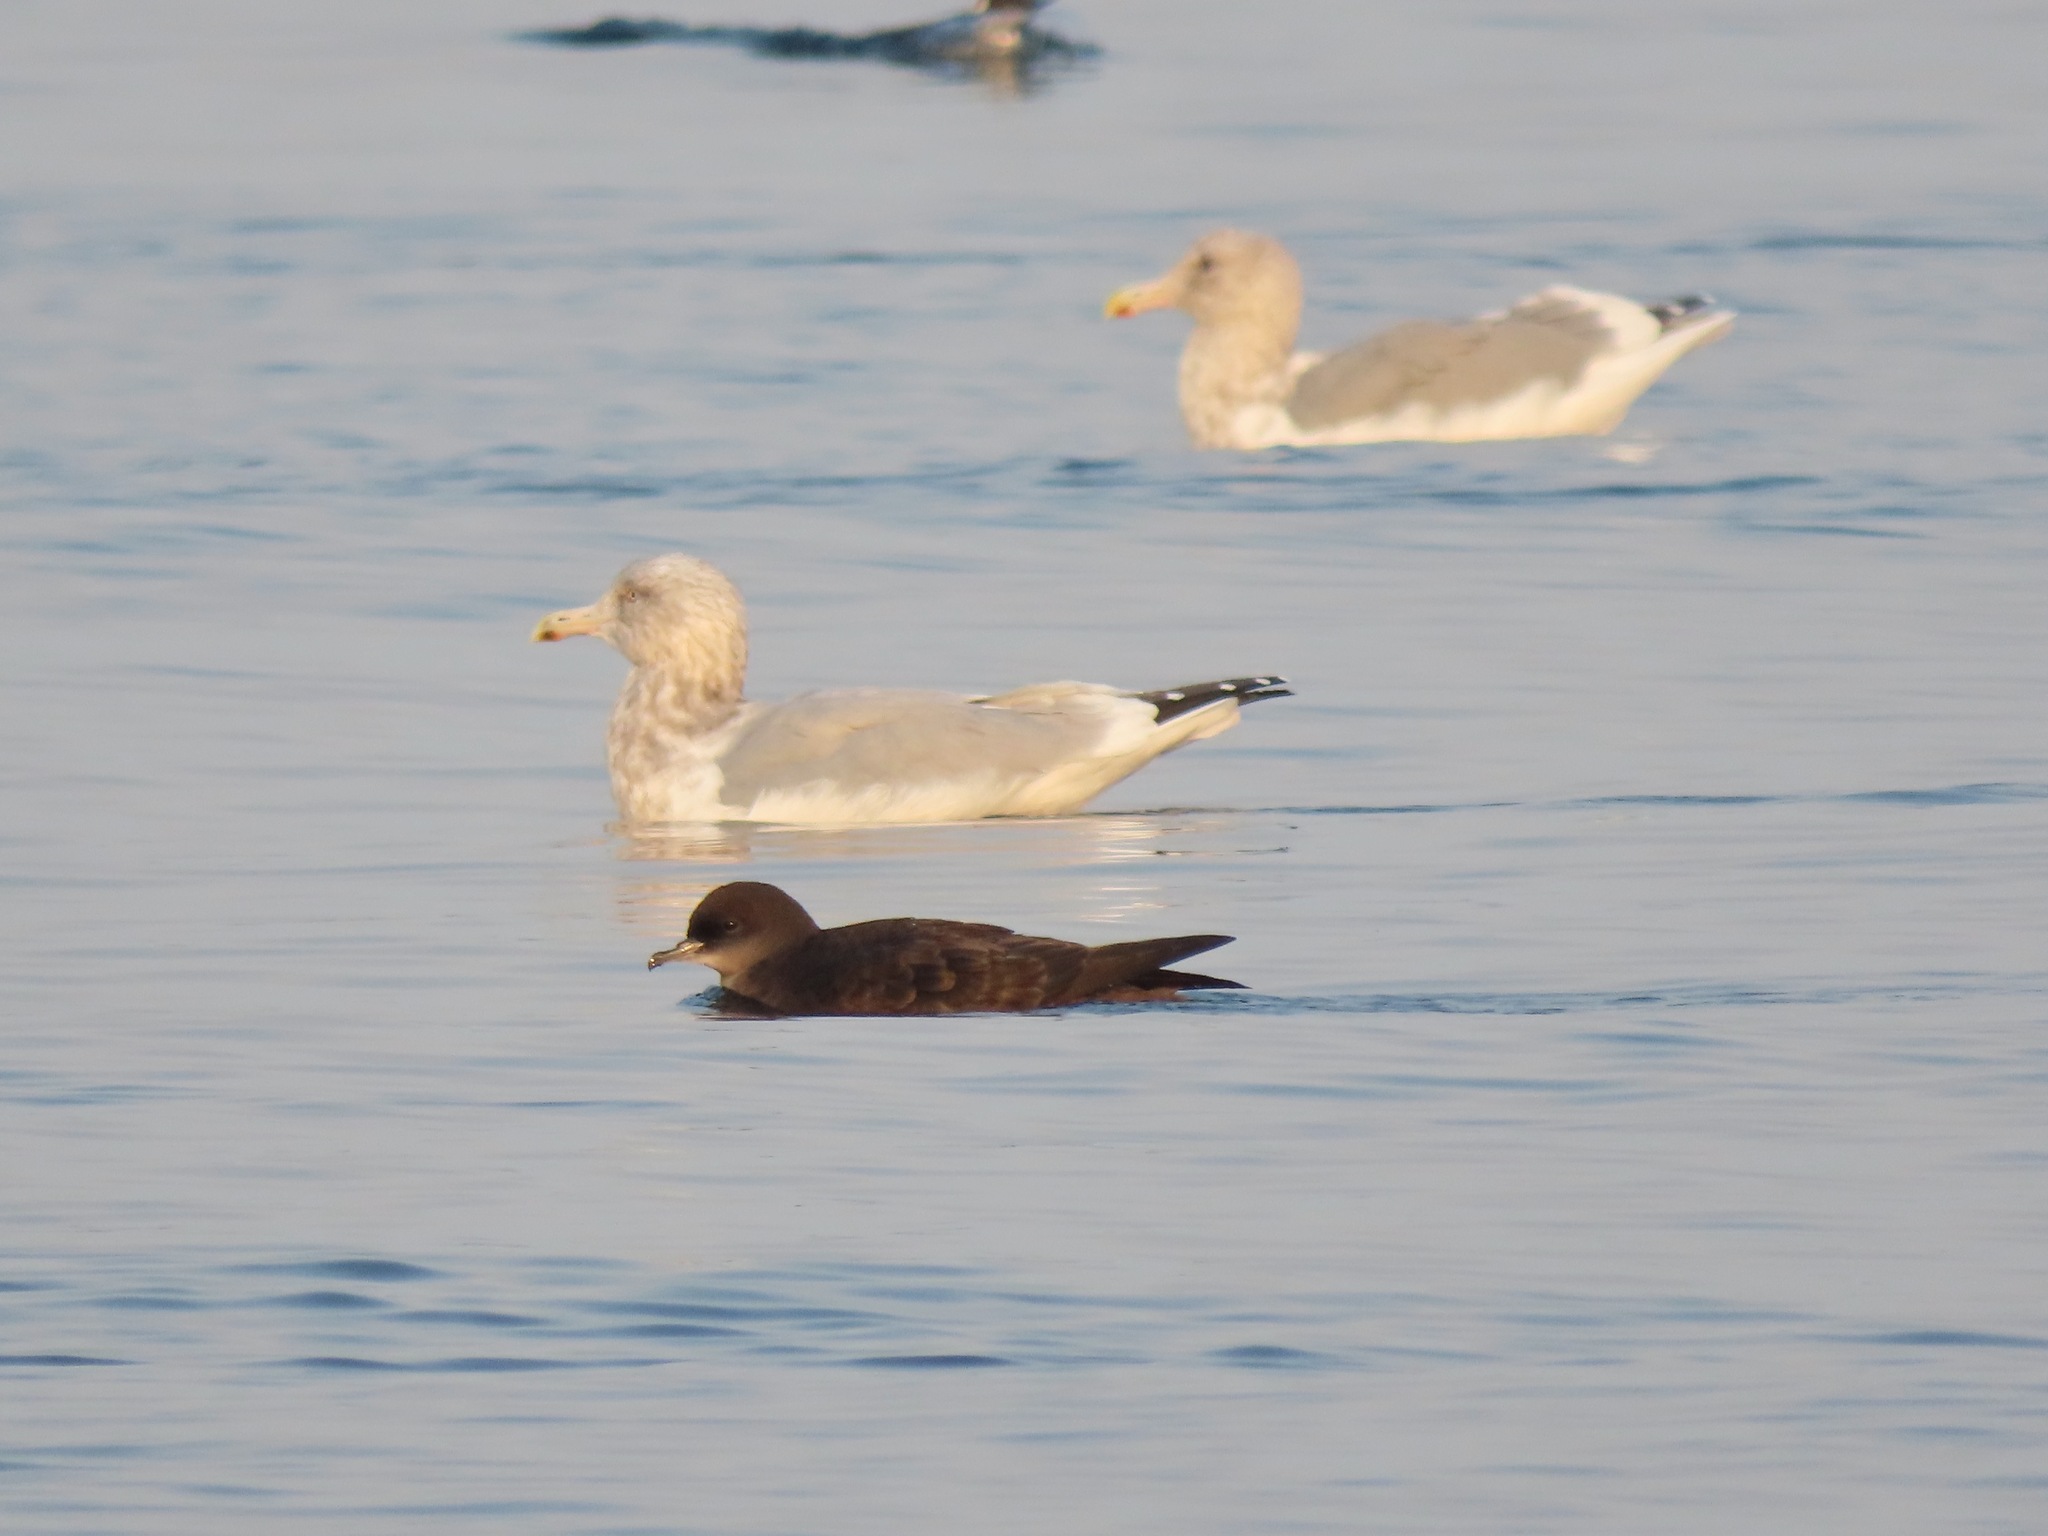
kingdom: Animalia
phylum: Chordata
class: Aves
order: Procellariiformes
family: Procellariidae
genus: Puffinus
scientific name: Puffinus tenuirostris
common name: Short-tailed shearwater
